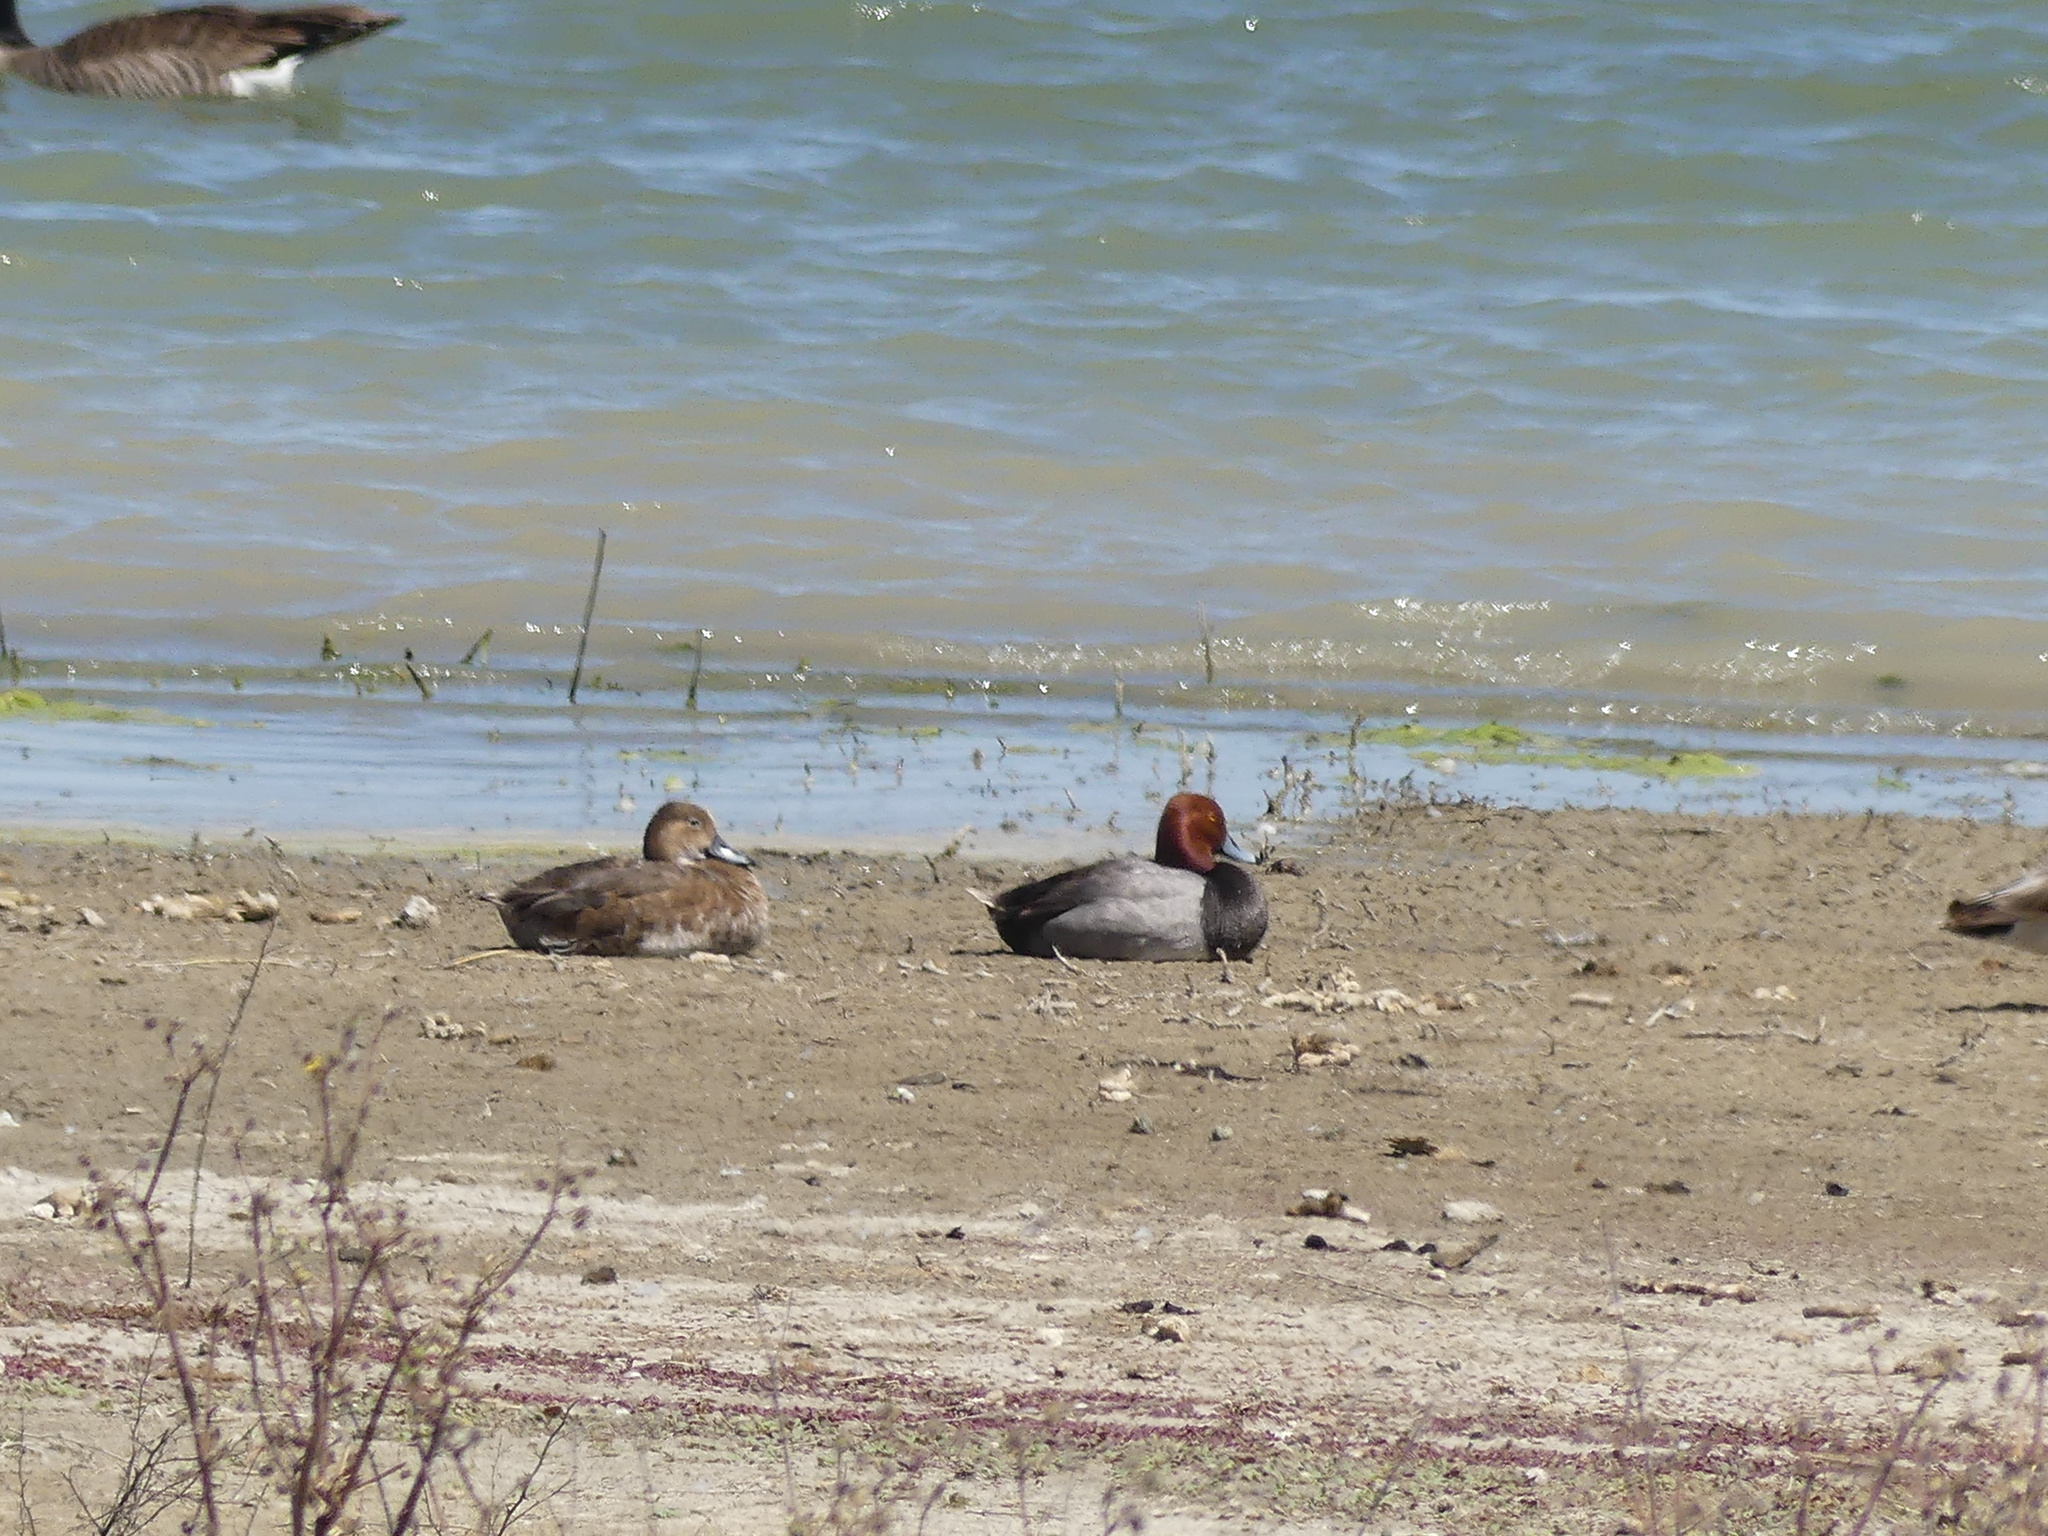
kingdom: Animalia
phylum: Chordata
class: Aves
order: Anseriformes
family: Anatidae
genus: Aythya
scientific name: Aythya americana
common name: Redhead
